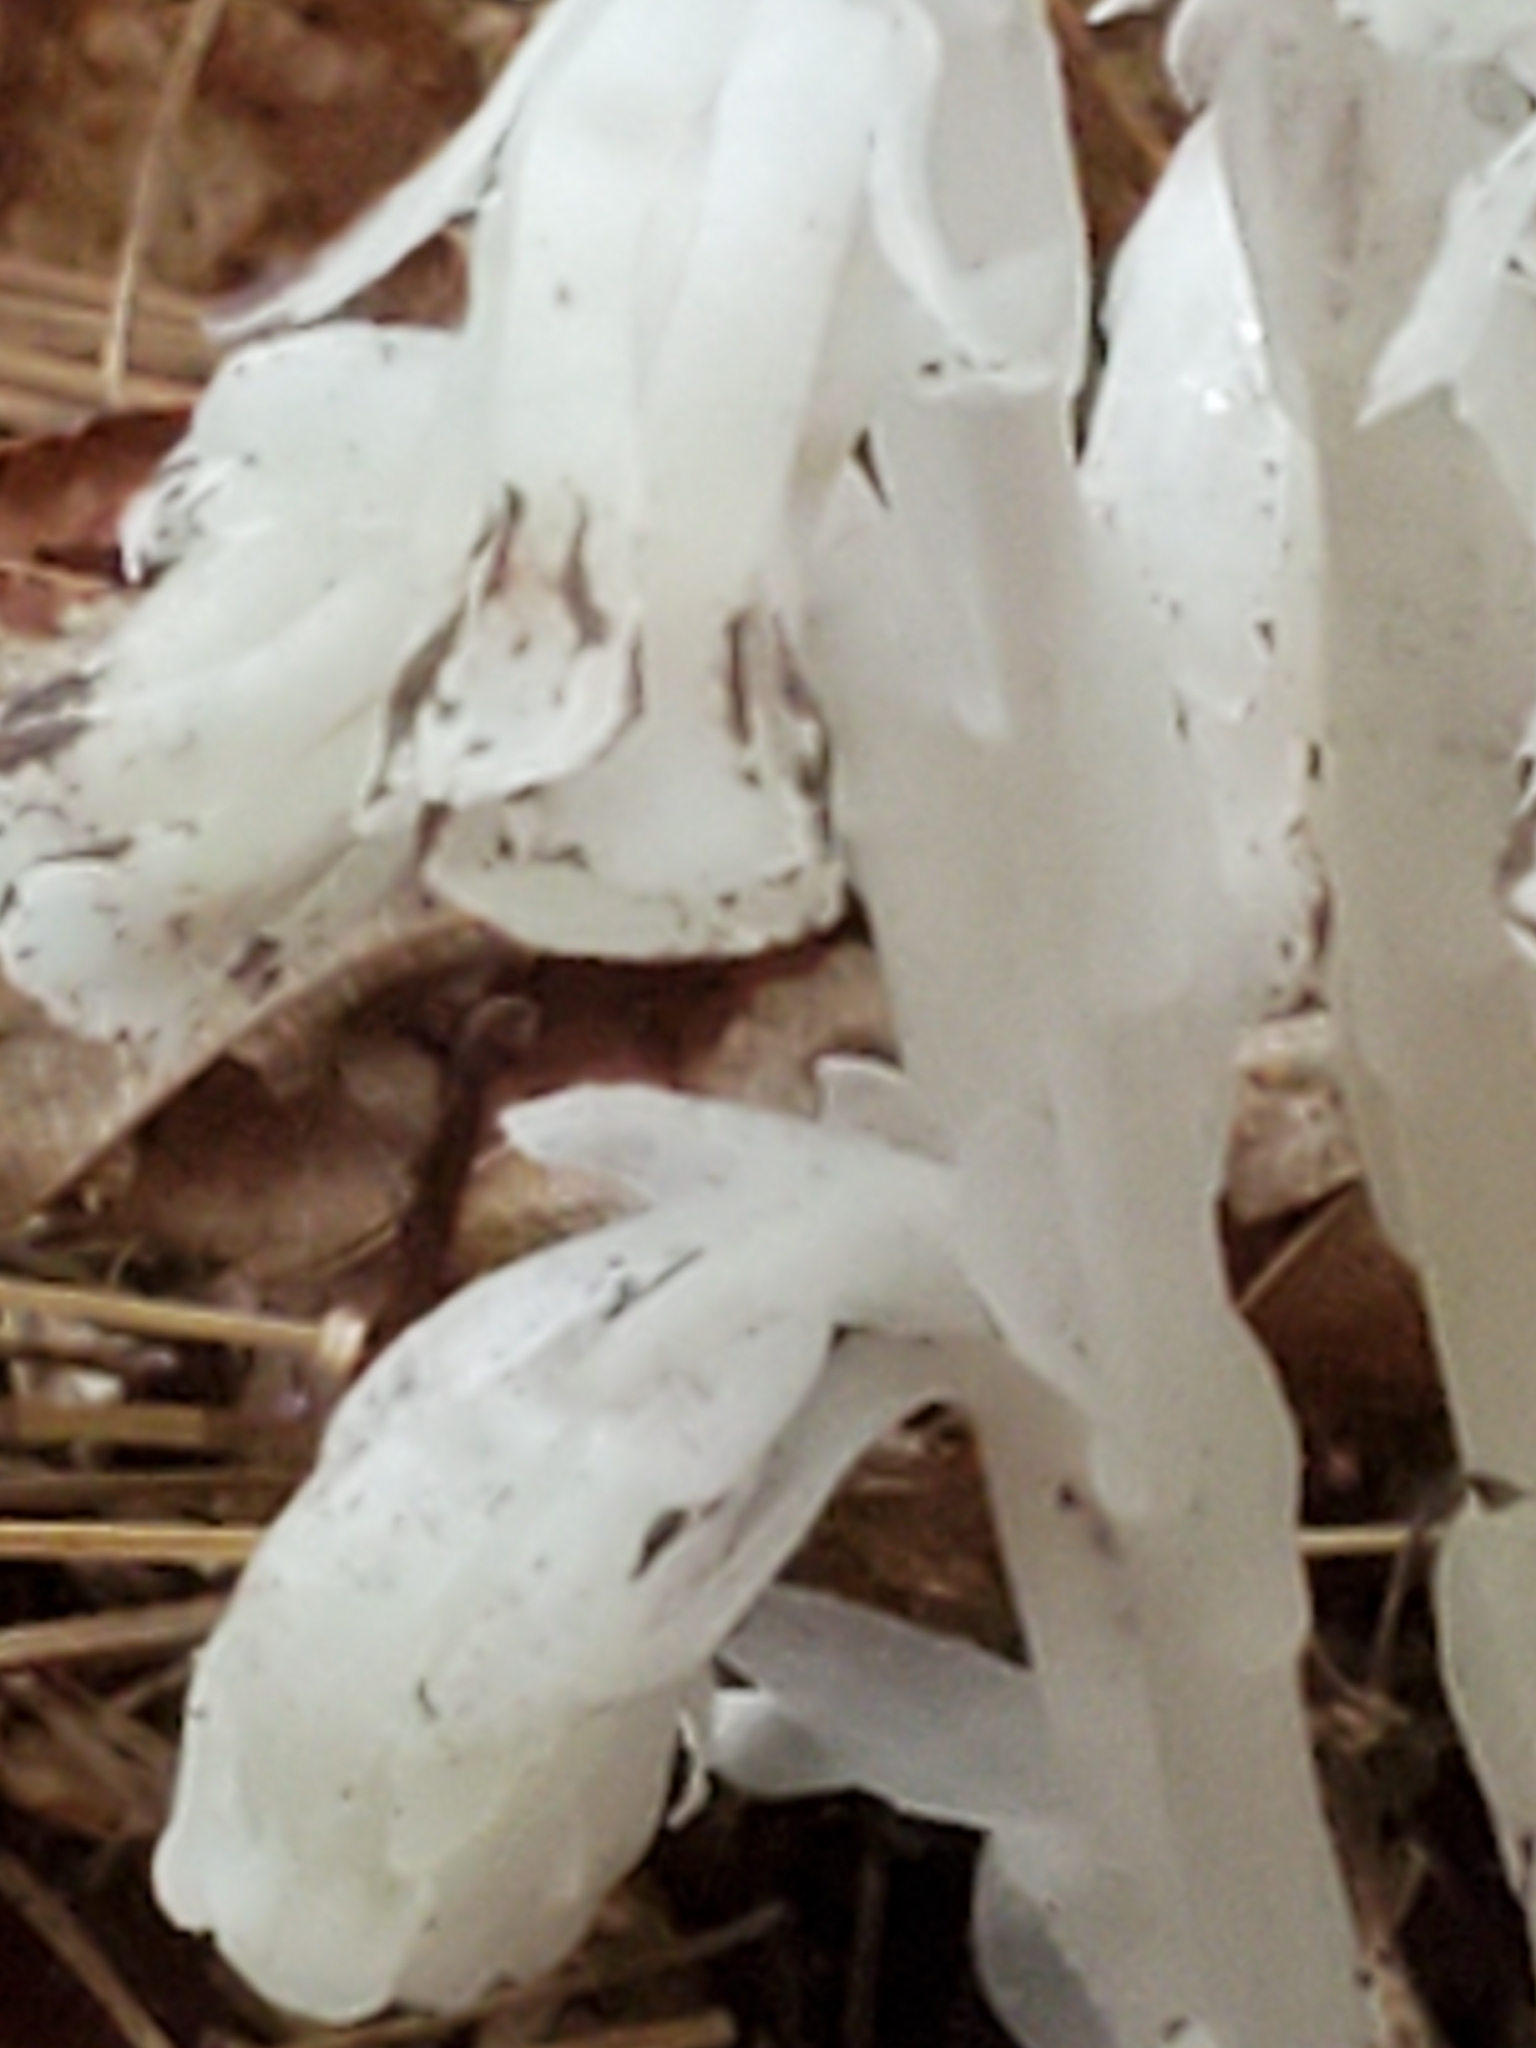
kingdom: Plantae
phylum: Tracheophyta
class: Magnoliopsida
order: Ericales
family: Ericaceae
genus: Monotropa
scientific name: Monotropa uniflora
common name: Convulsion root
